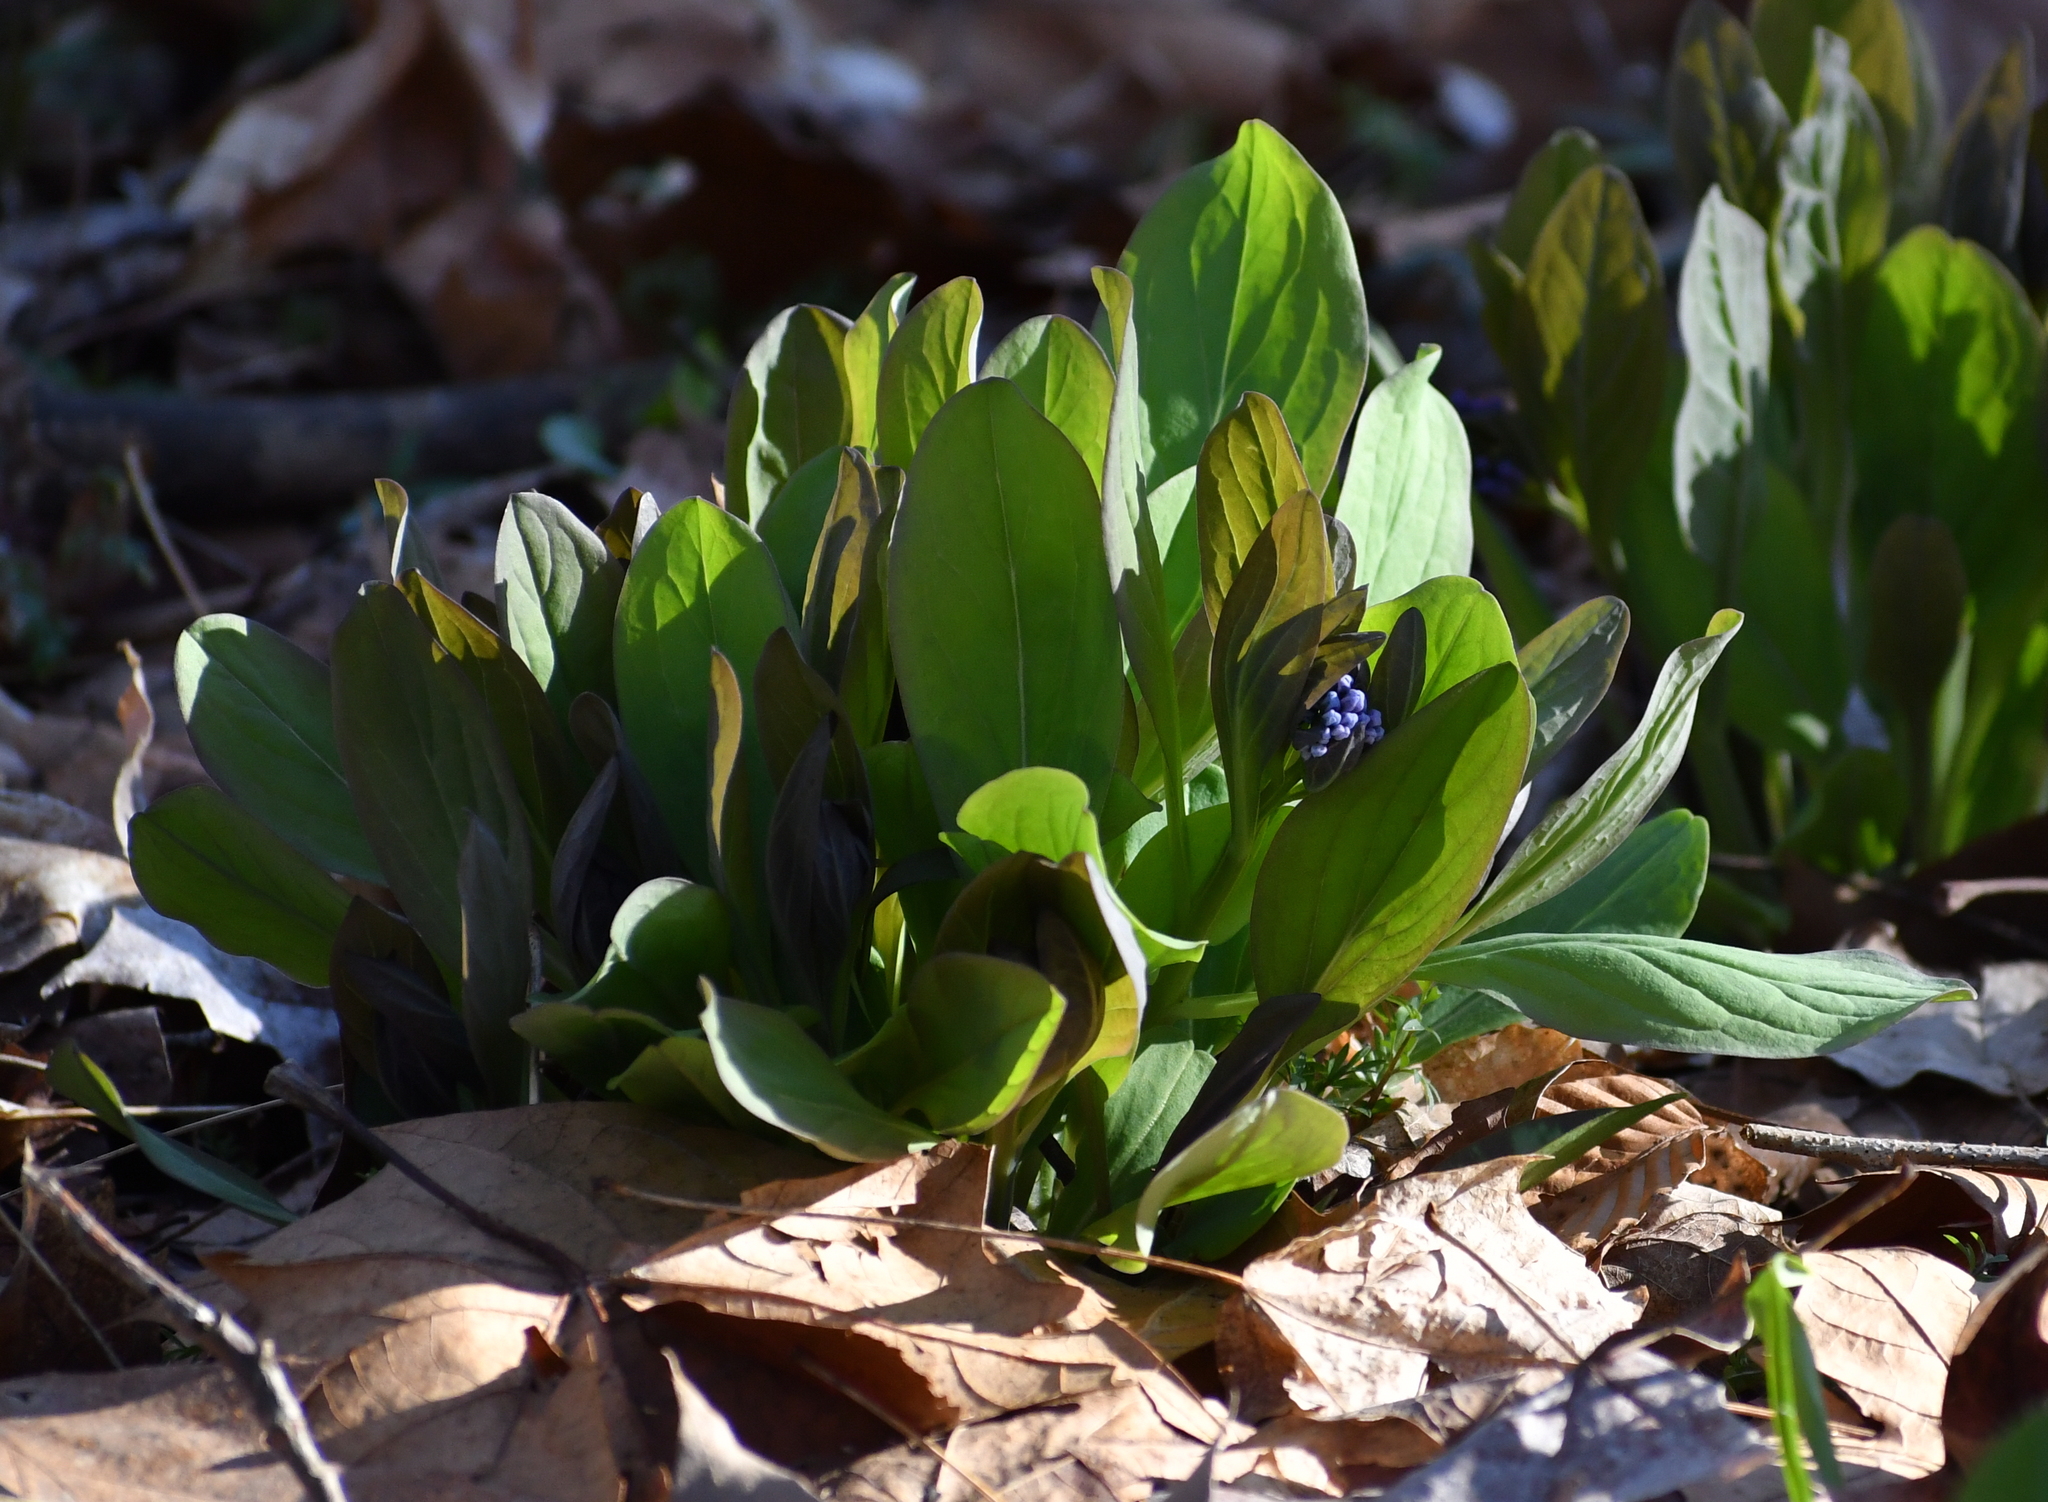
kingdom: Plantae
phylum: Tracheophyta
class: Magnoliopsida
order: Boraginales
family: Boraginaceae
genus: Mertensia
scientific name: Mertensia virginica
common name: Virginia bluebells
